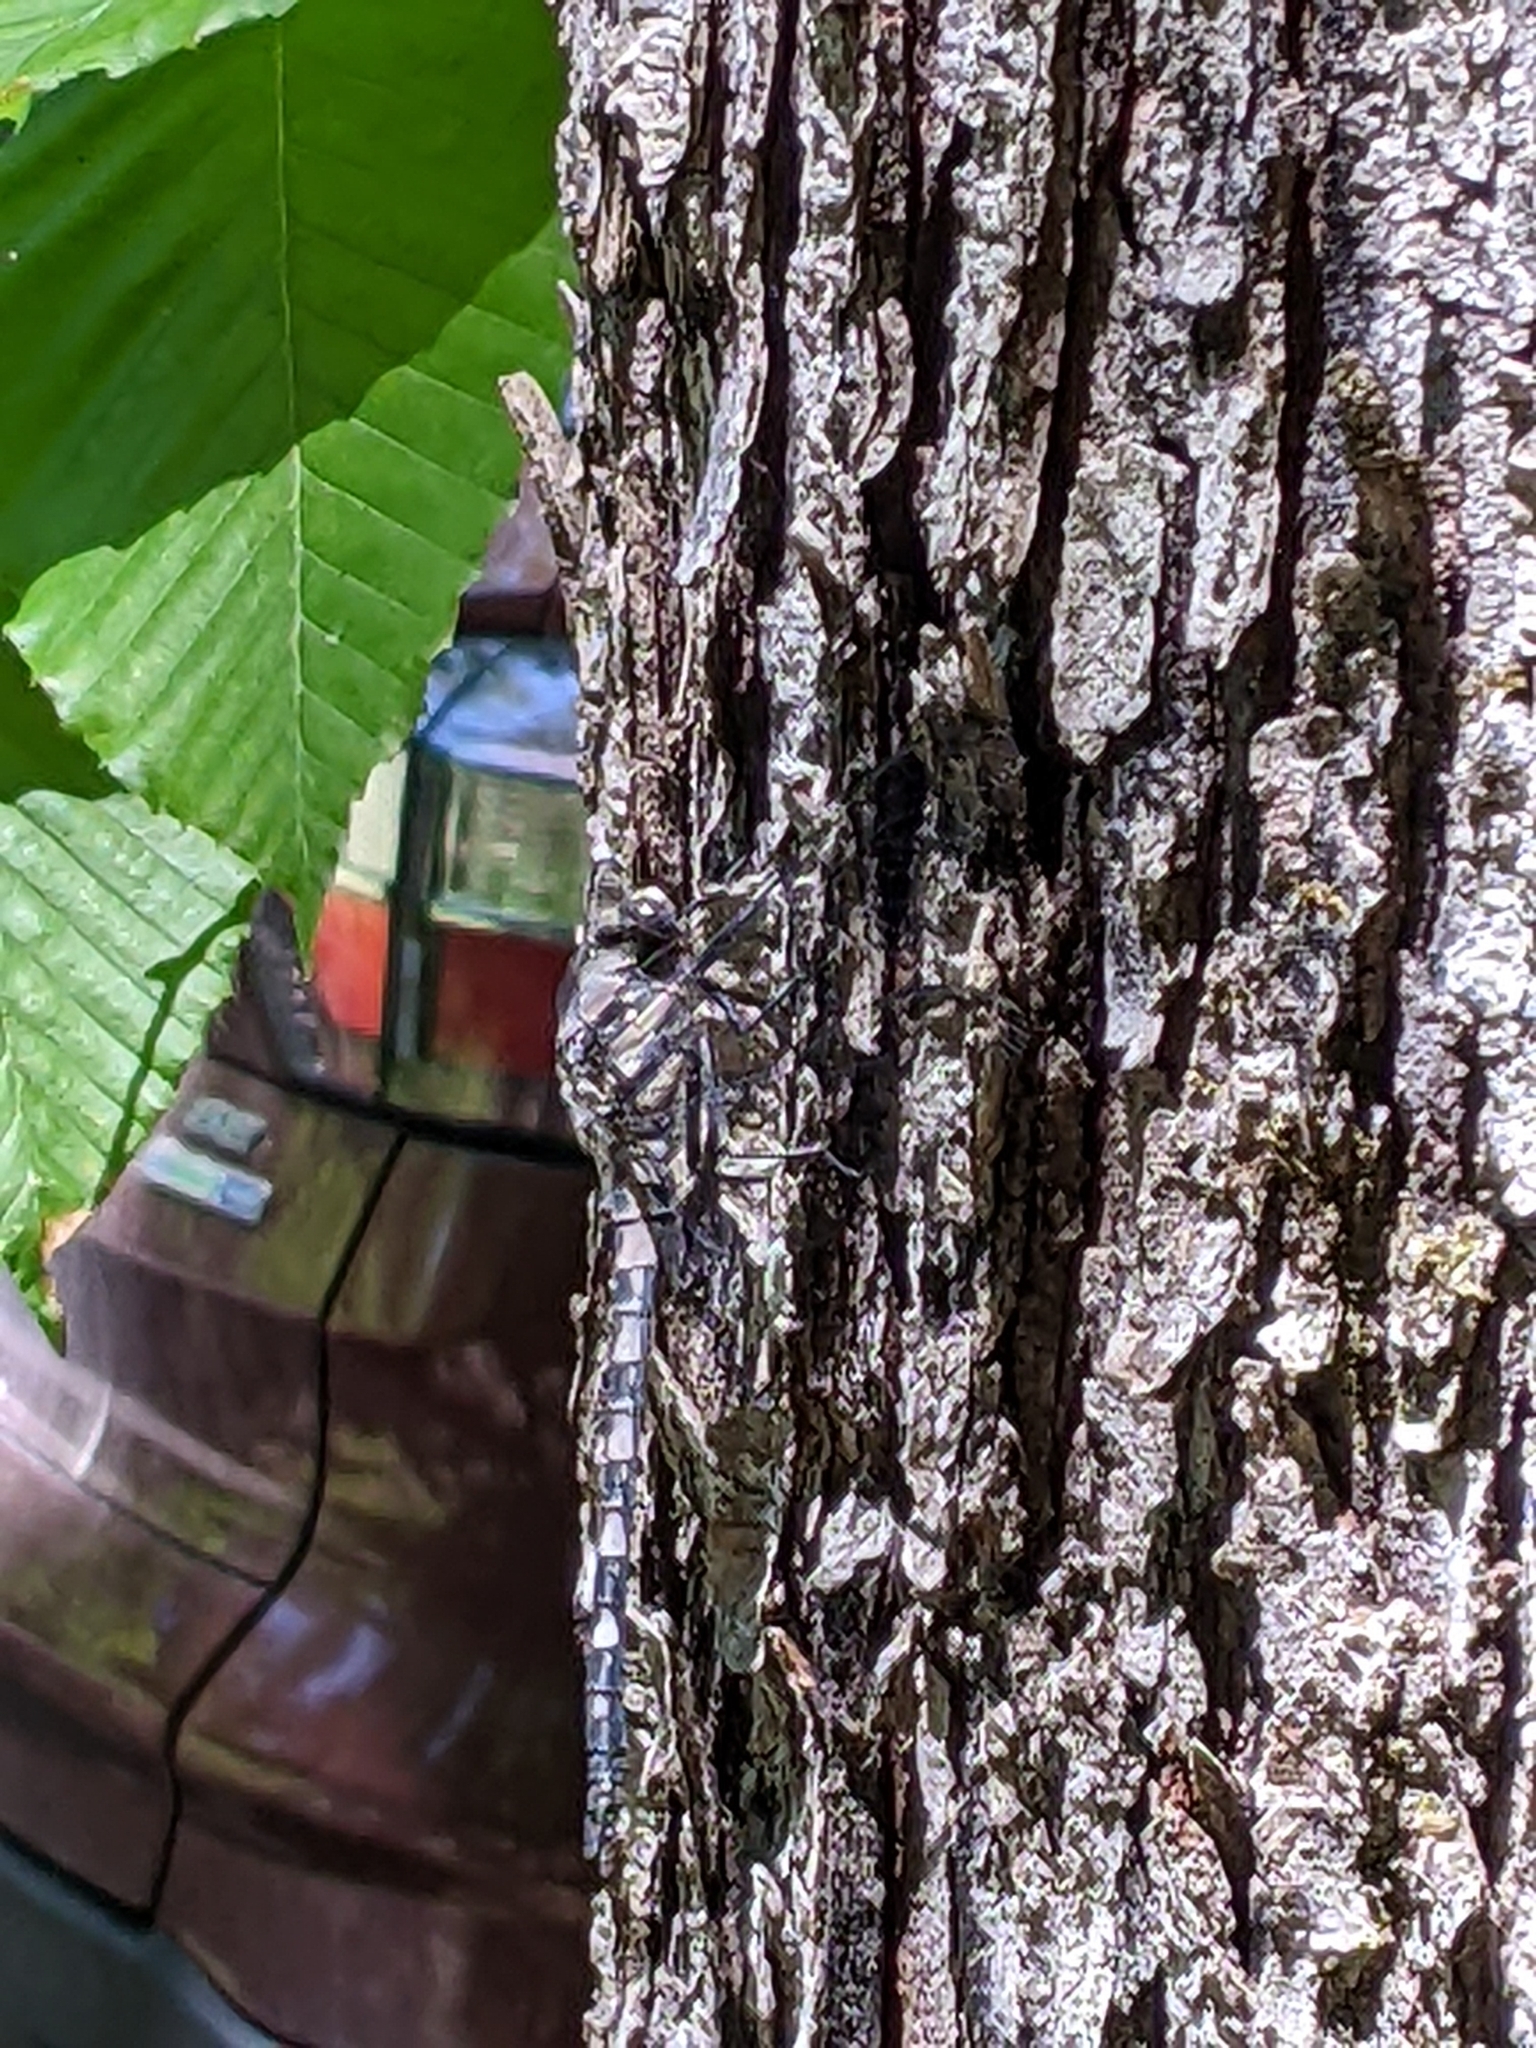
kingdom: Animalia
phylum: Arthropoda
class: Insecta
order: Odonata
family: Petaluridae
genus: Tachopteryx
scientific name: Tachopteryx thoreyi
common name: Gray petaltail
